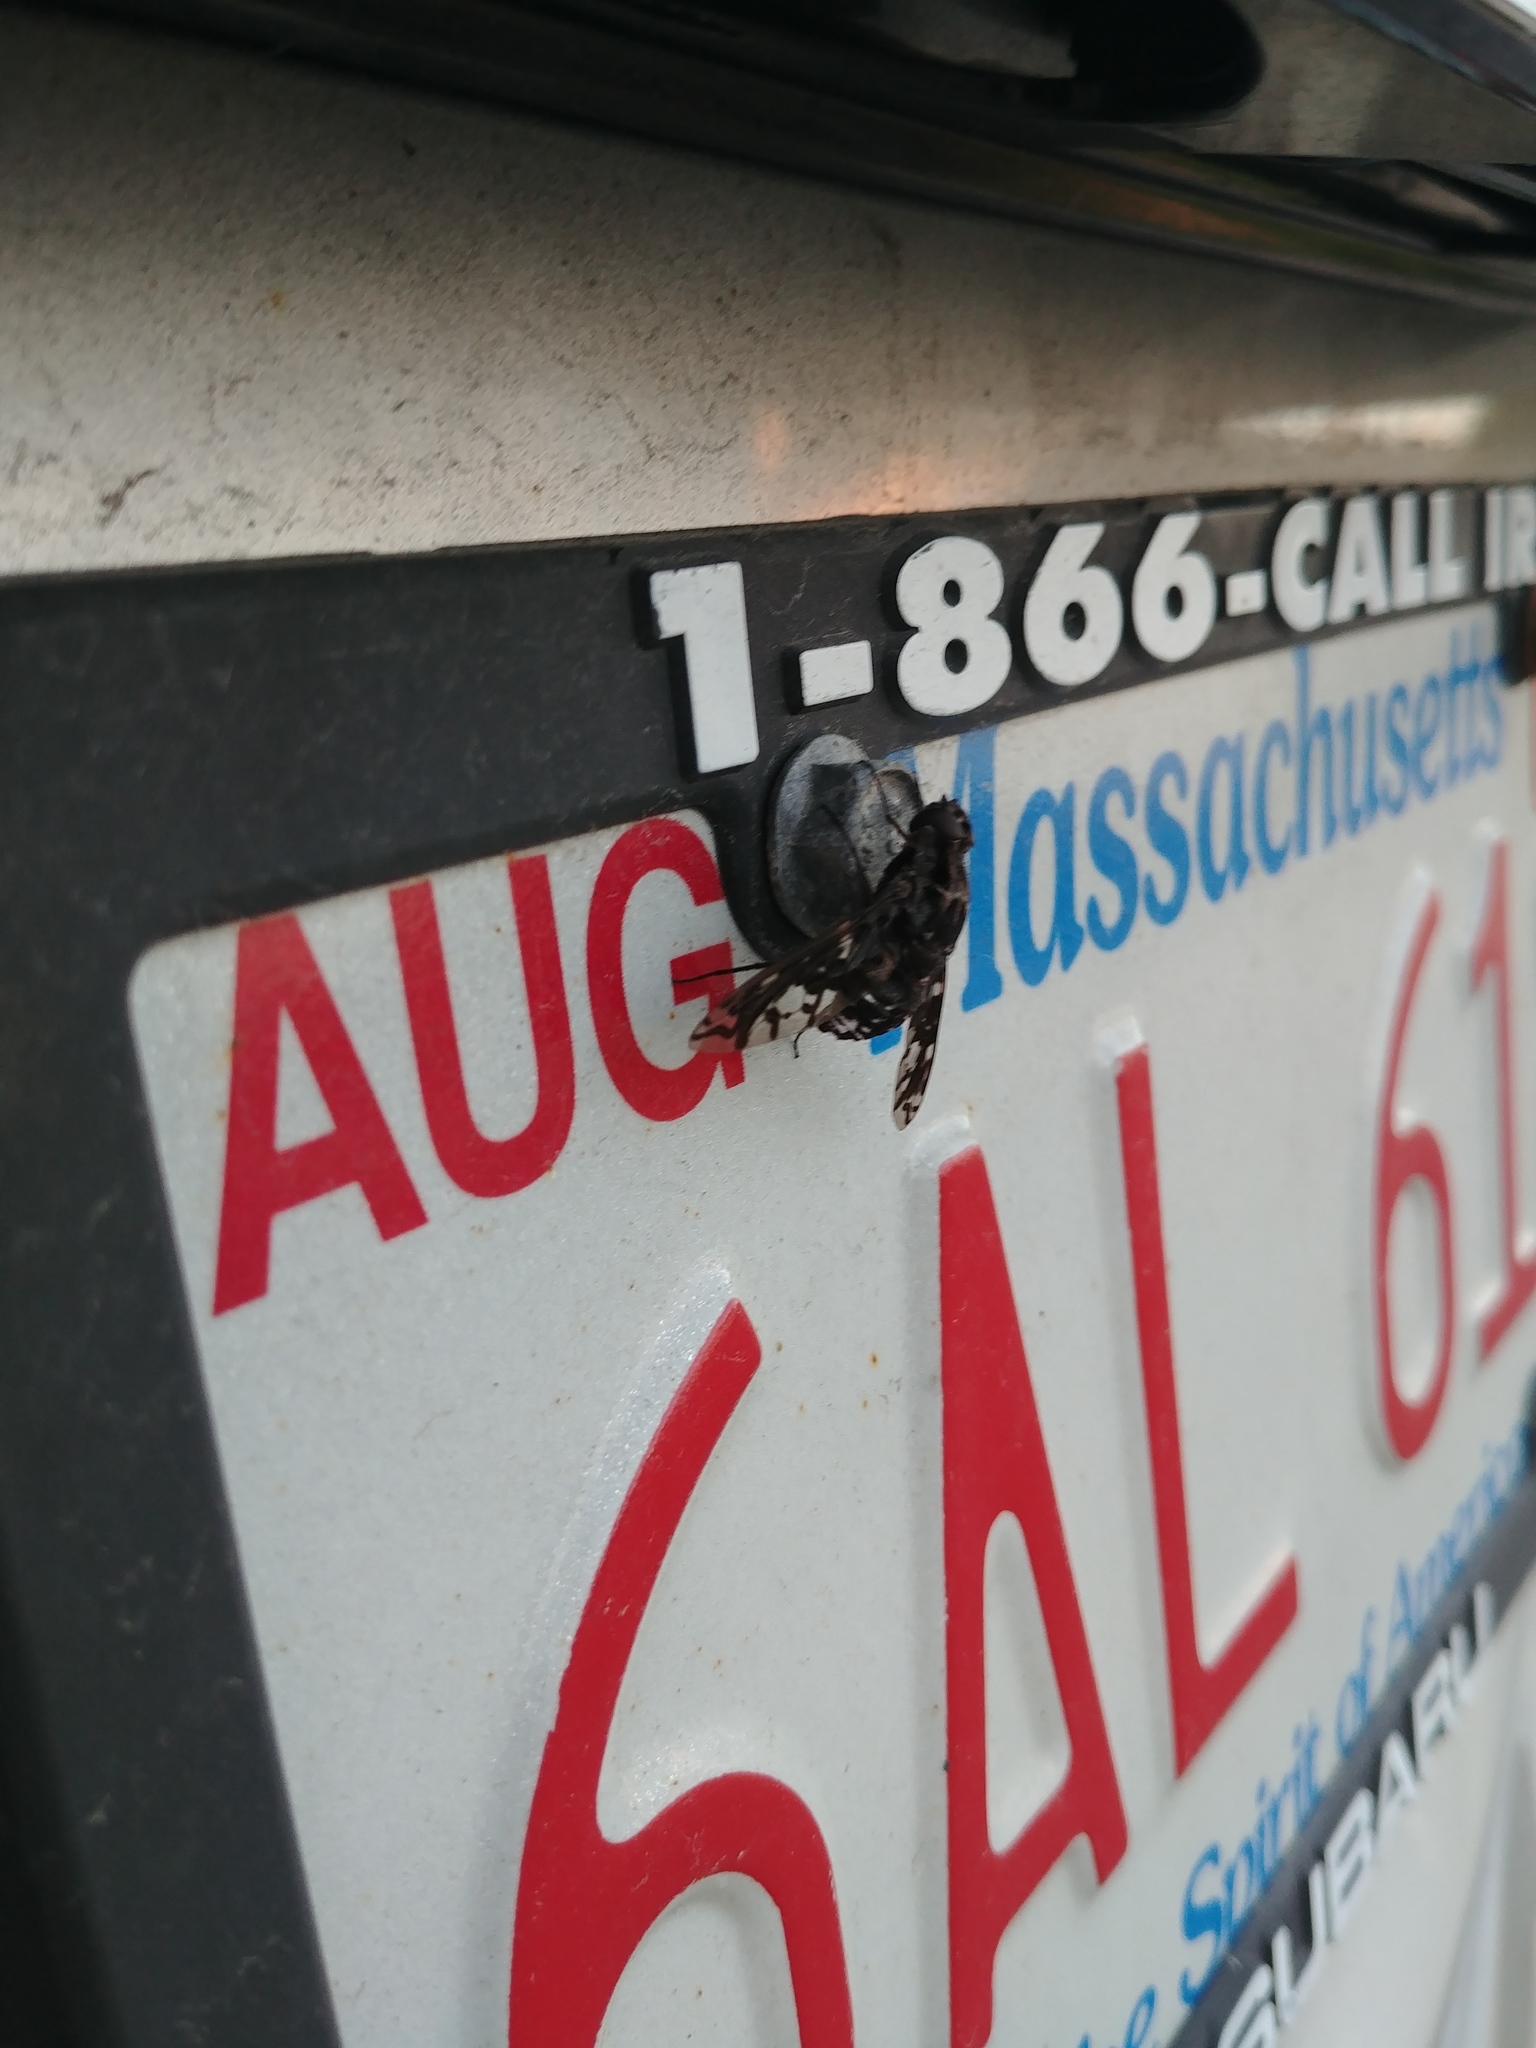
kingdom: Animalia
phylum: Arthropoda
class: Insecta
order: Diptera
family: Bombyliidae
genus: Xenox
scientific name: Xenox tigrinus
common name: Tiger bee fly
